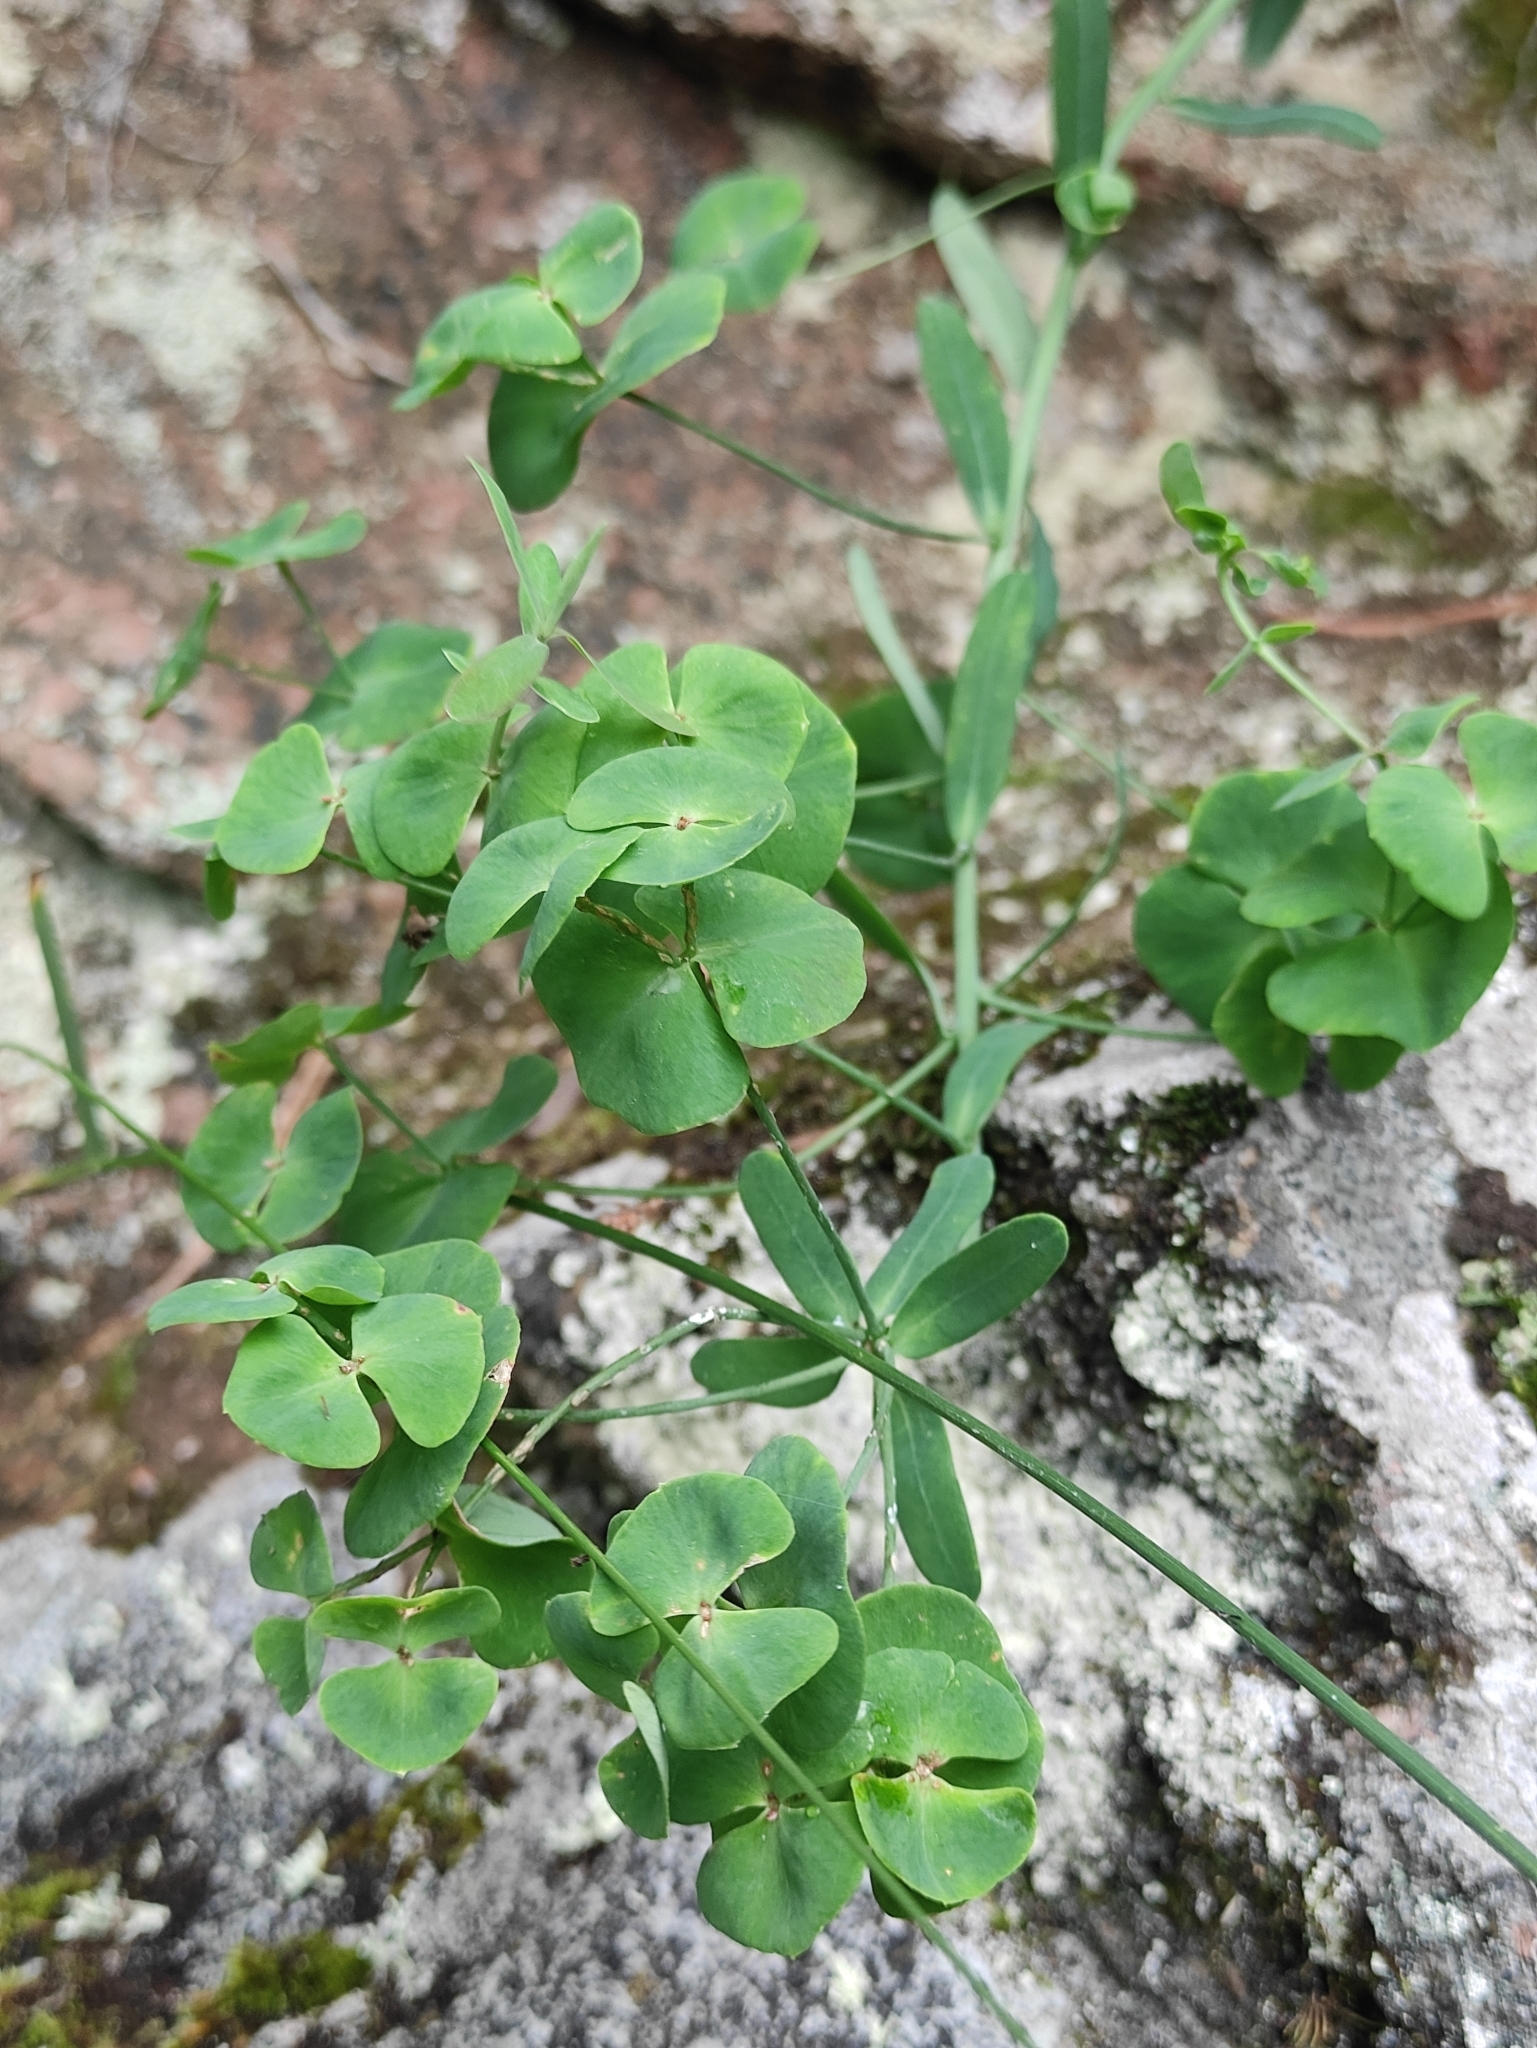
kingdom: Plantae
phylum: Tracheophyta
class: Magnoliopsida
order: Malpighiales
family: Euphorbiaceae
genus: Euphorbia
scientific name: Euphorbia borealis
